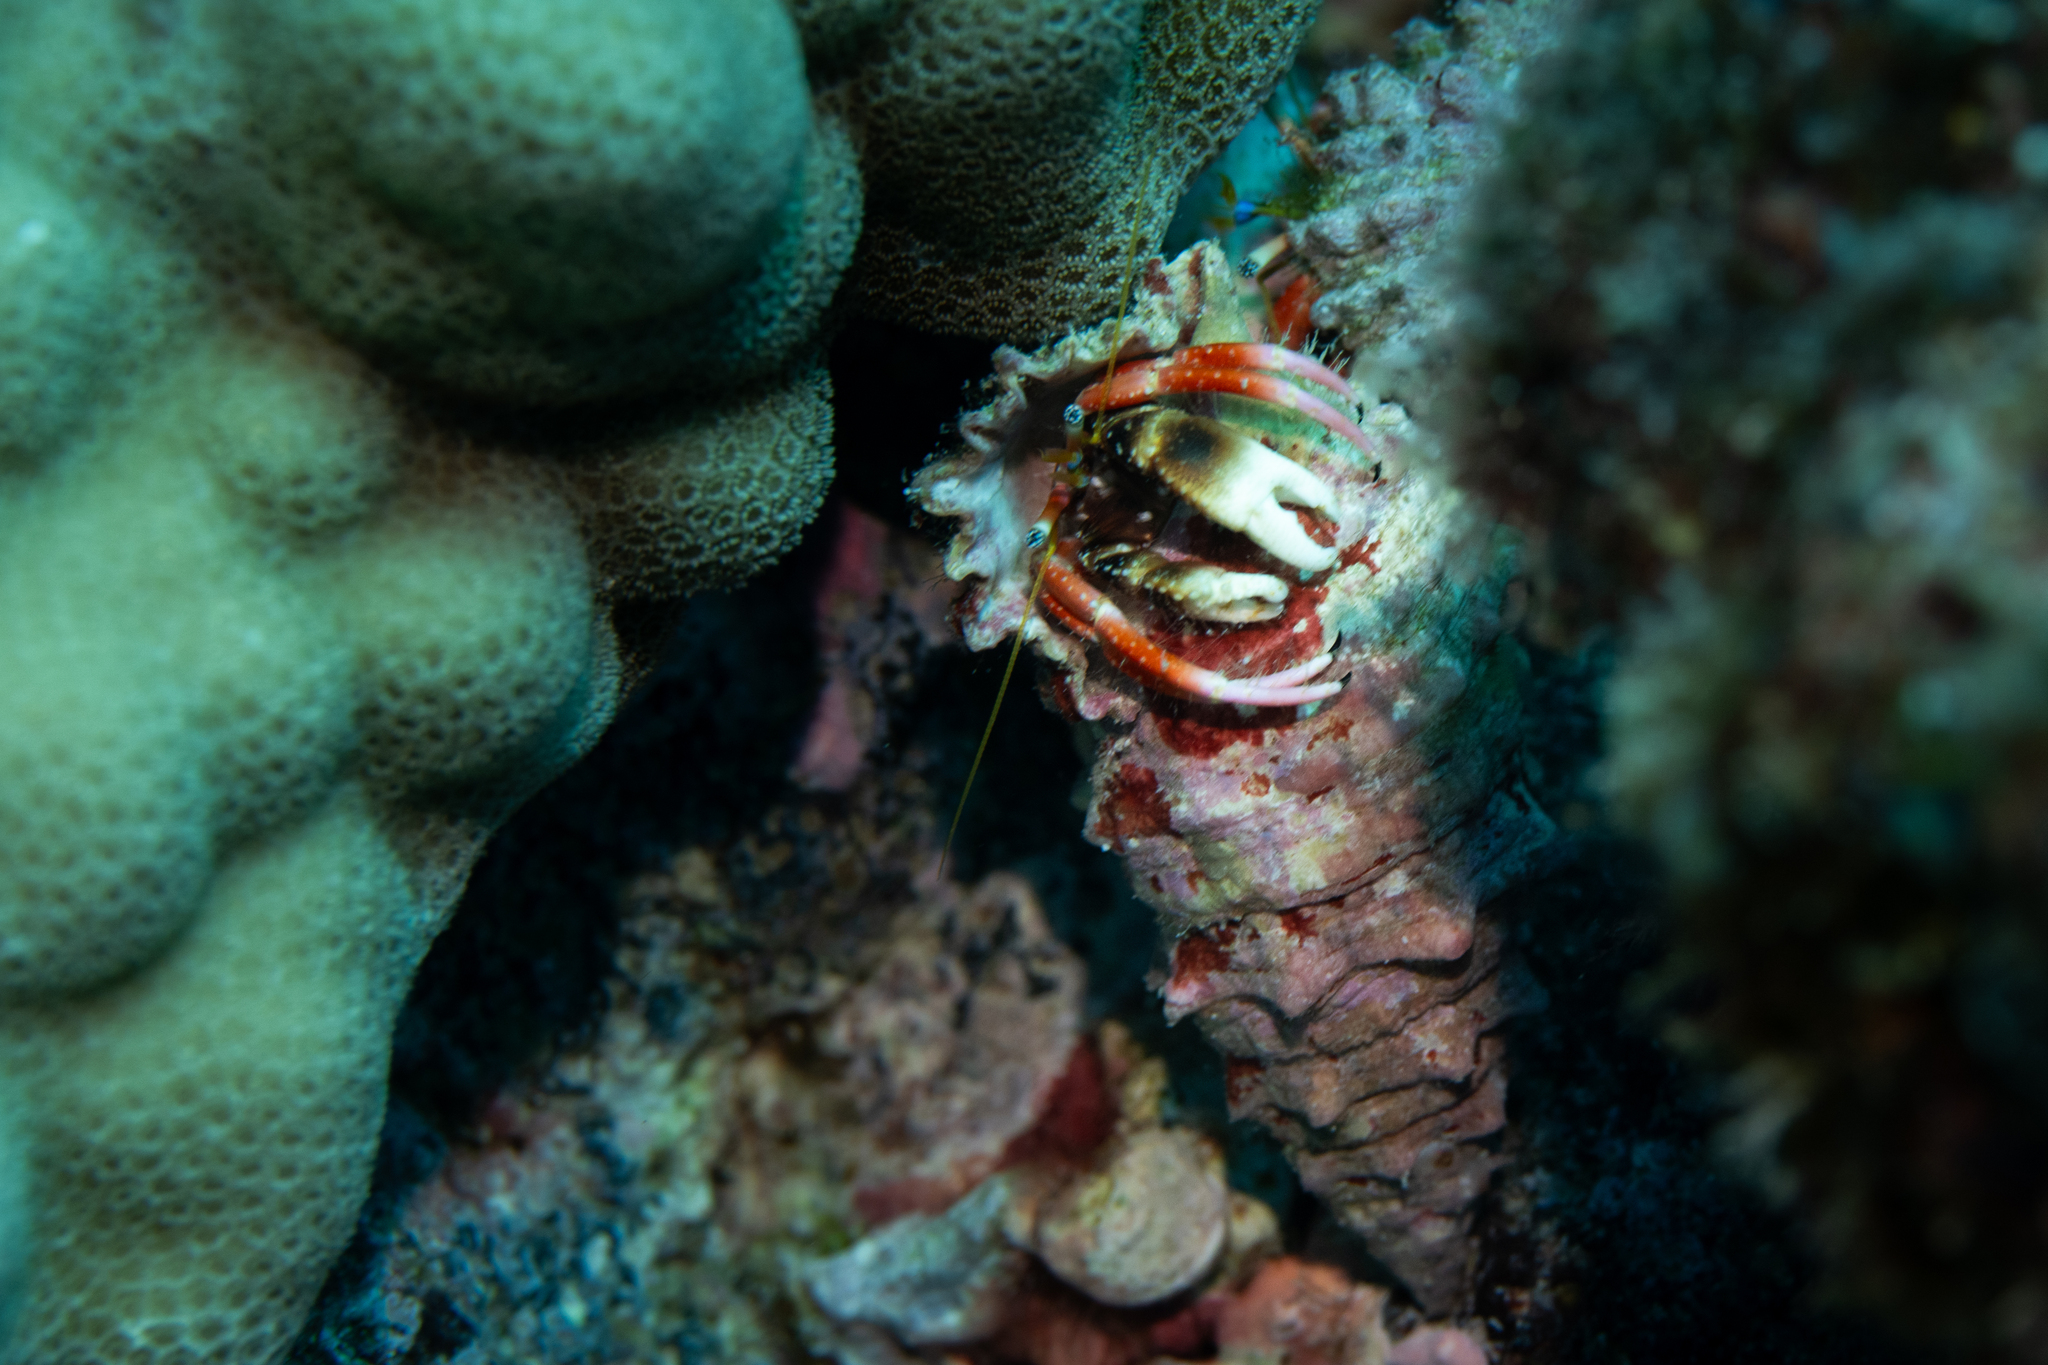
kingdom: Animalia
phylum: Arthropoda
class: Malacostraca
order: Decapoda
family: Diogenidae
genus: Calcinus
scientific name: Calcinus laurentae
